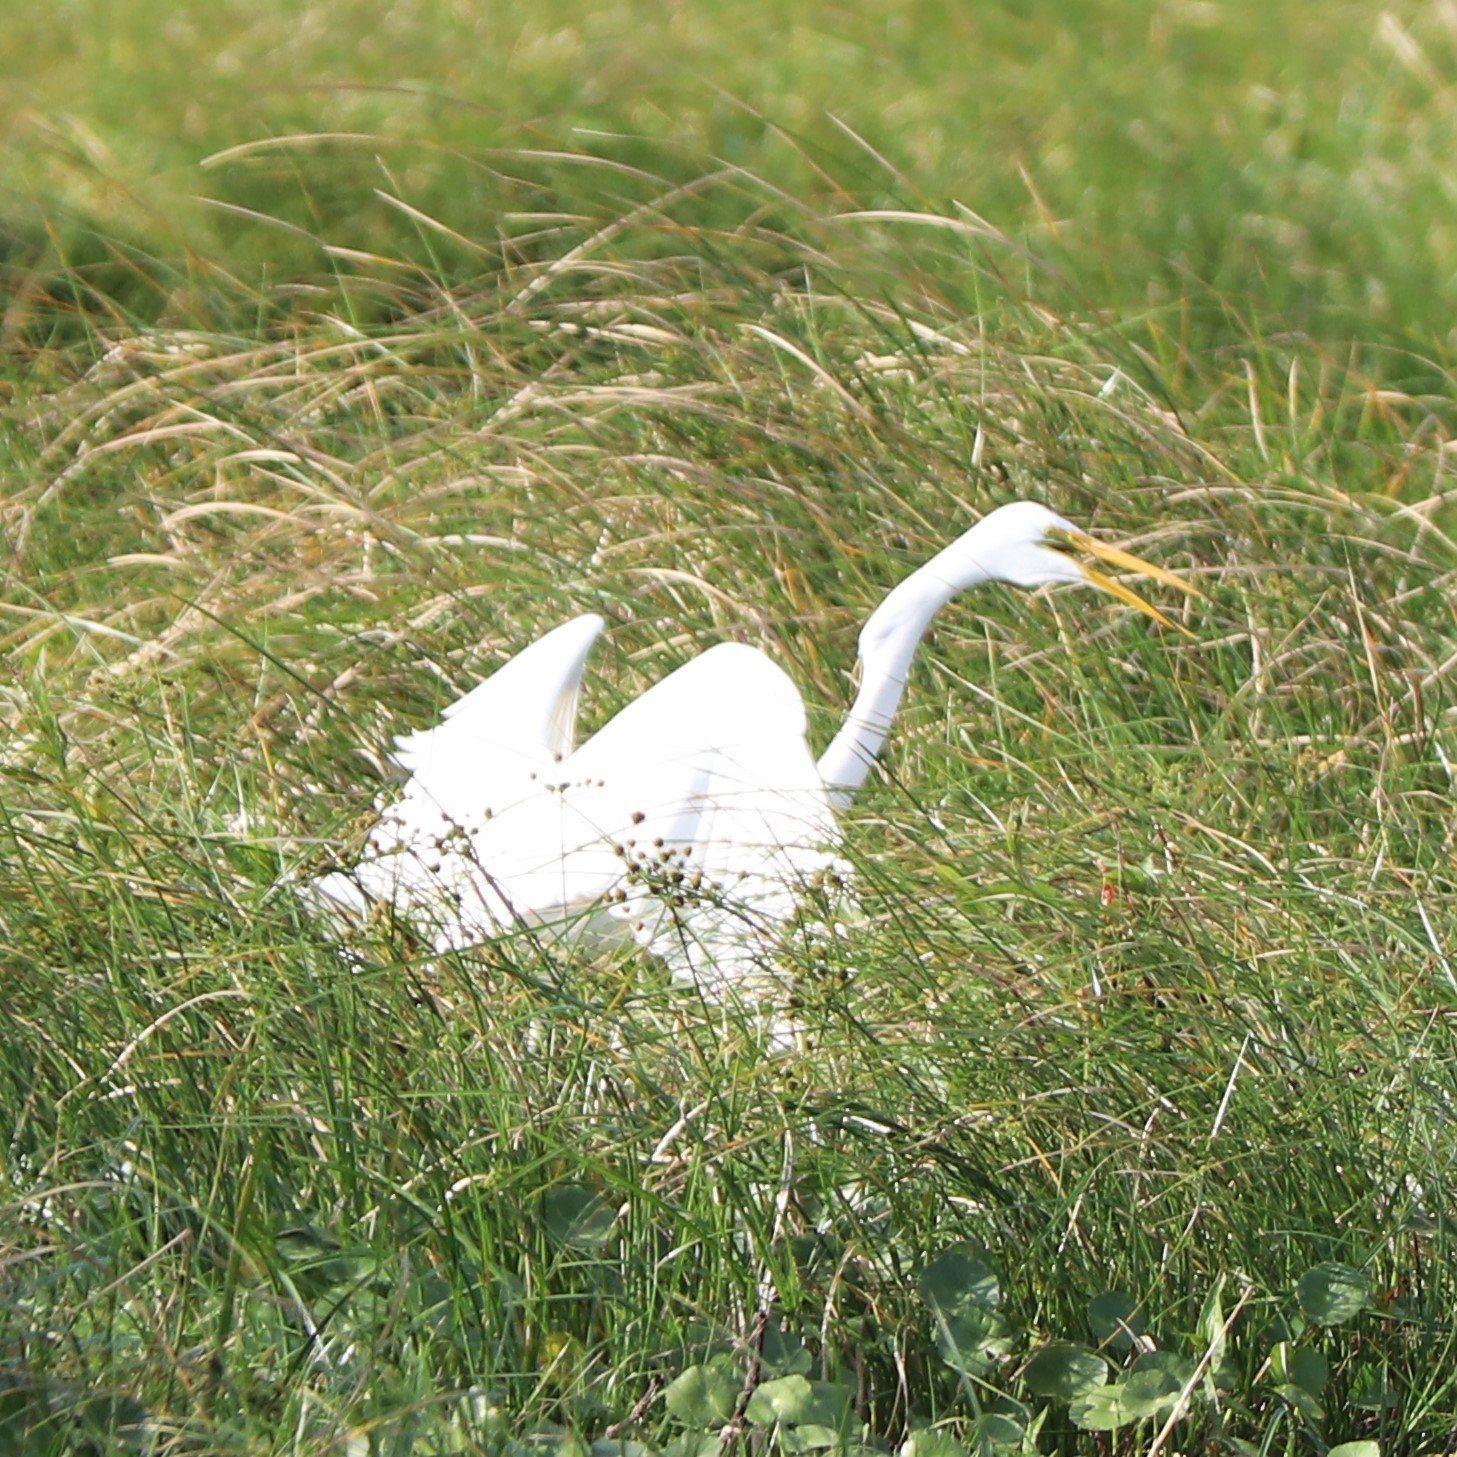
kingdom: Animalia
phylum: Chordata
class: Aves
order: Pelecaniformes
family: Ardeidae
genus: Ardea
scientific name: Ardea alba
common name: Great egret
